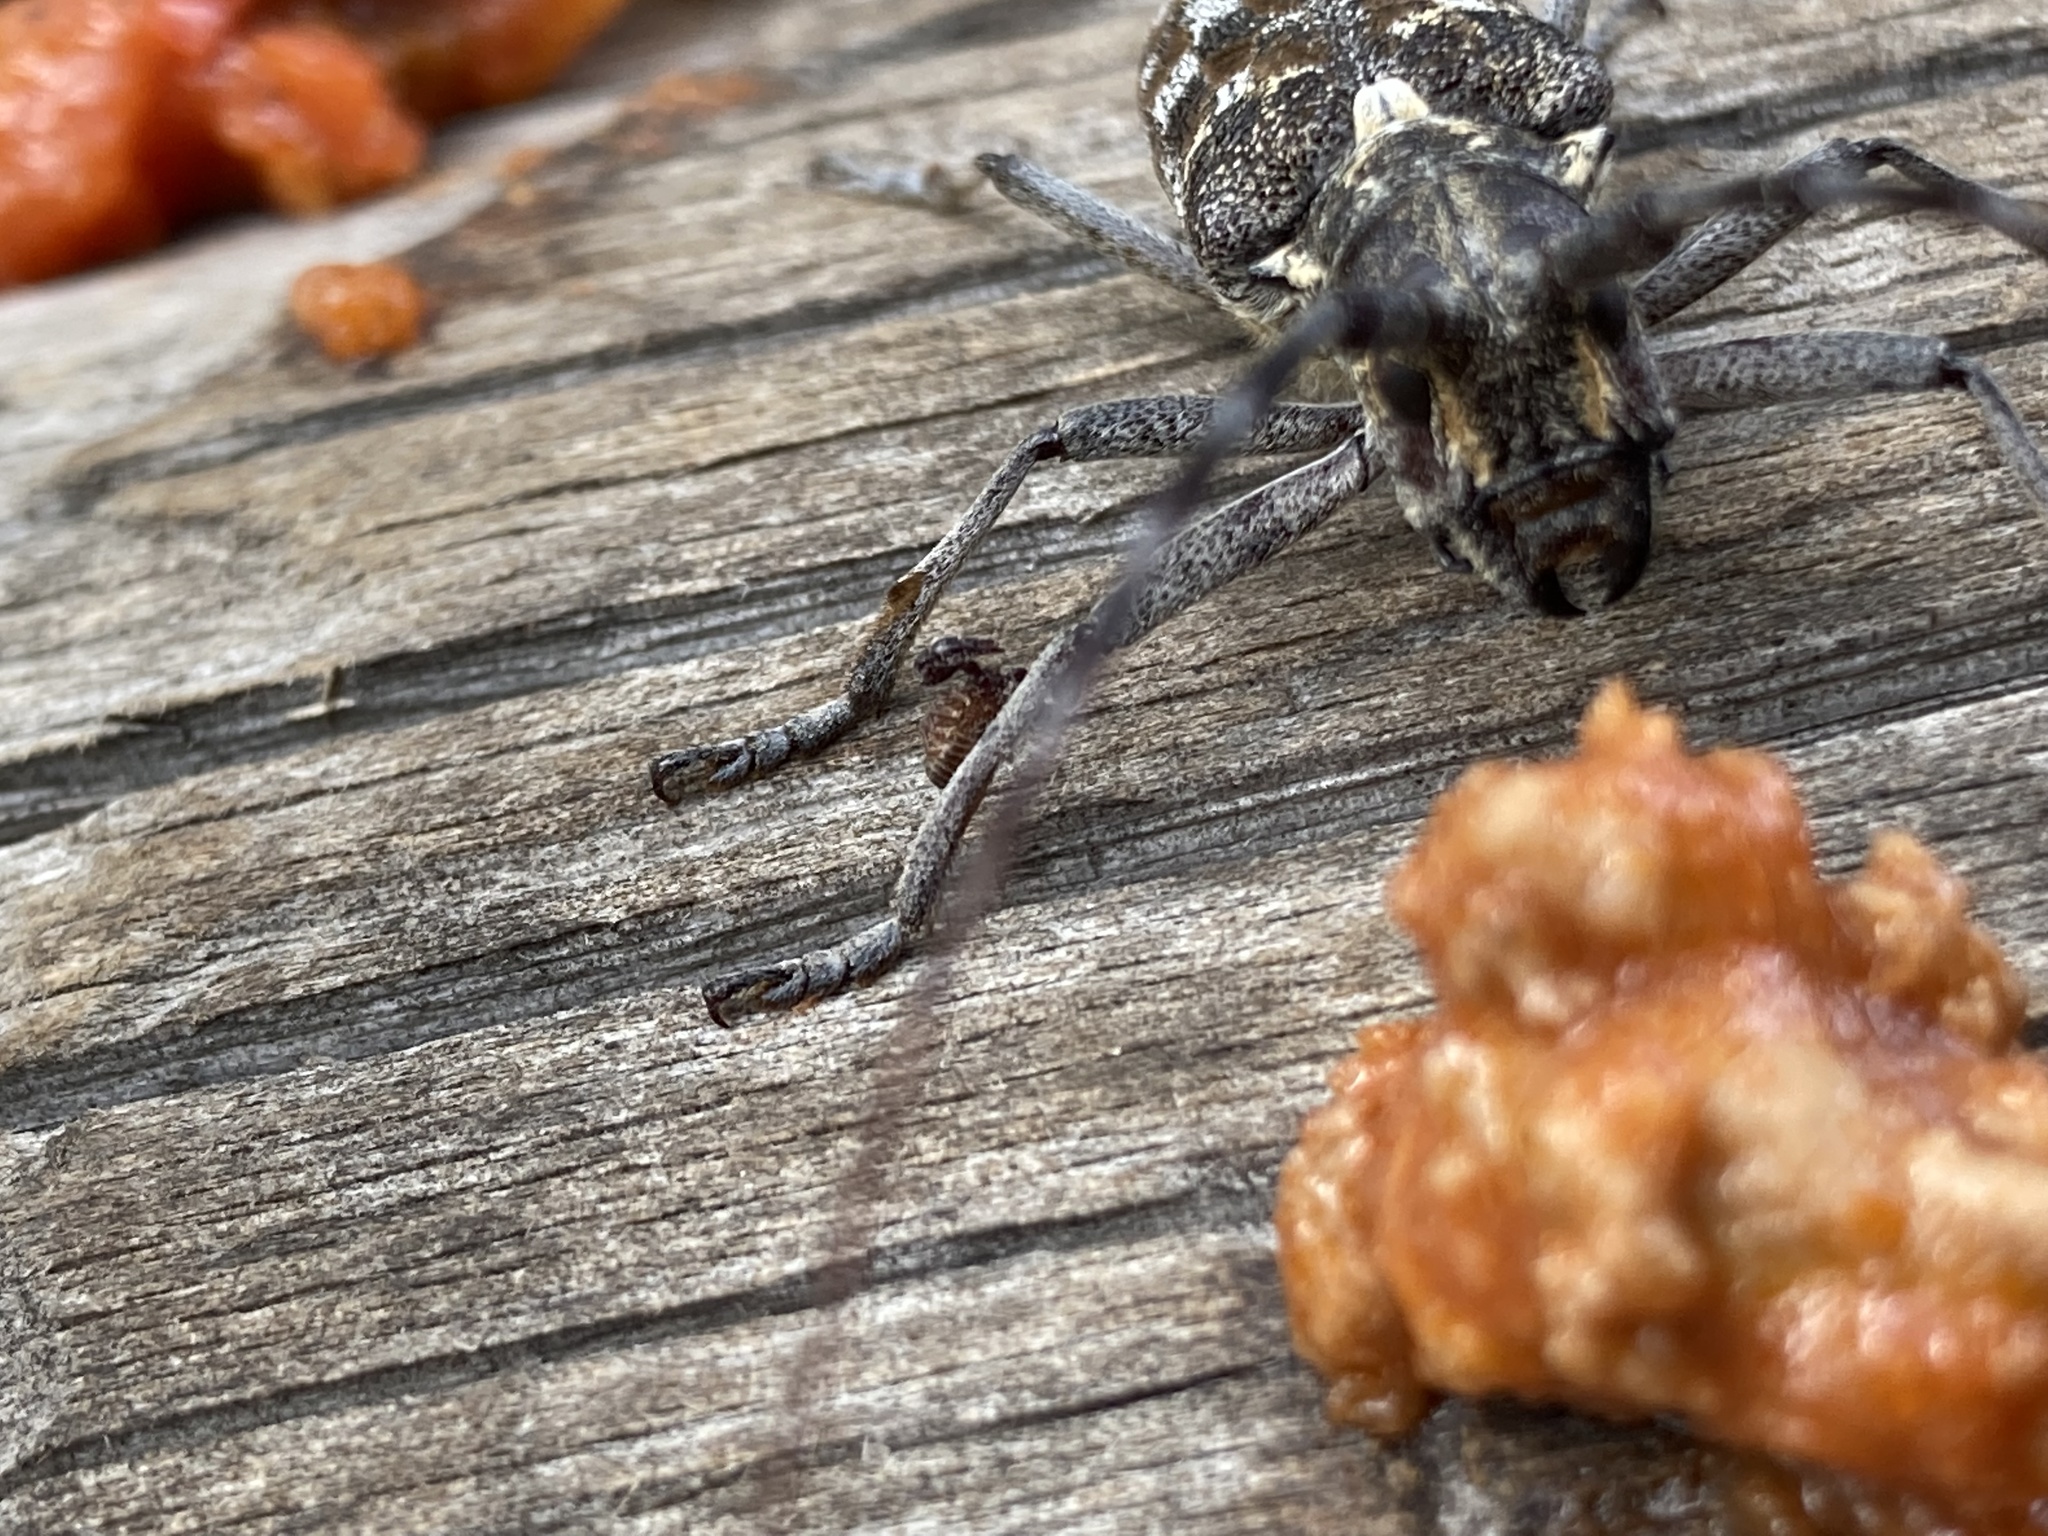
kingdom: Animalia
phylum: Arthropoda
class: Insecta
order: Coleoptera
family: Cerambycidae
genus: Monochamus
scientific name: Monochamus clamator
